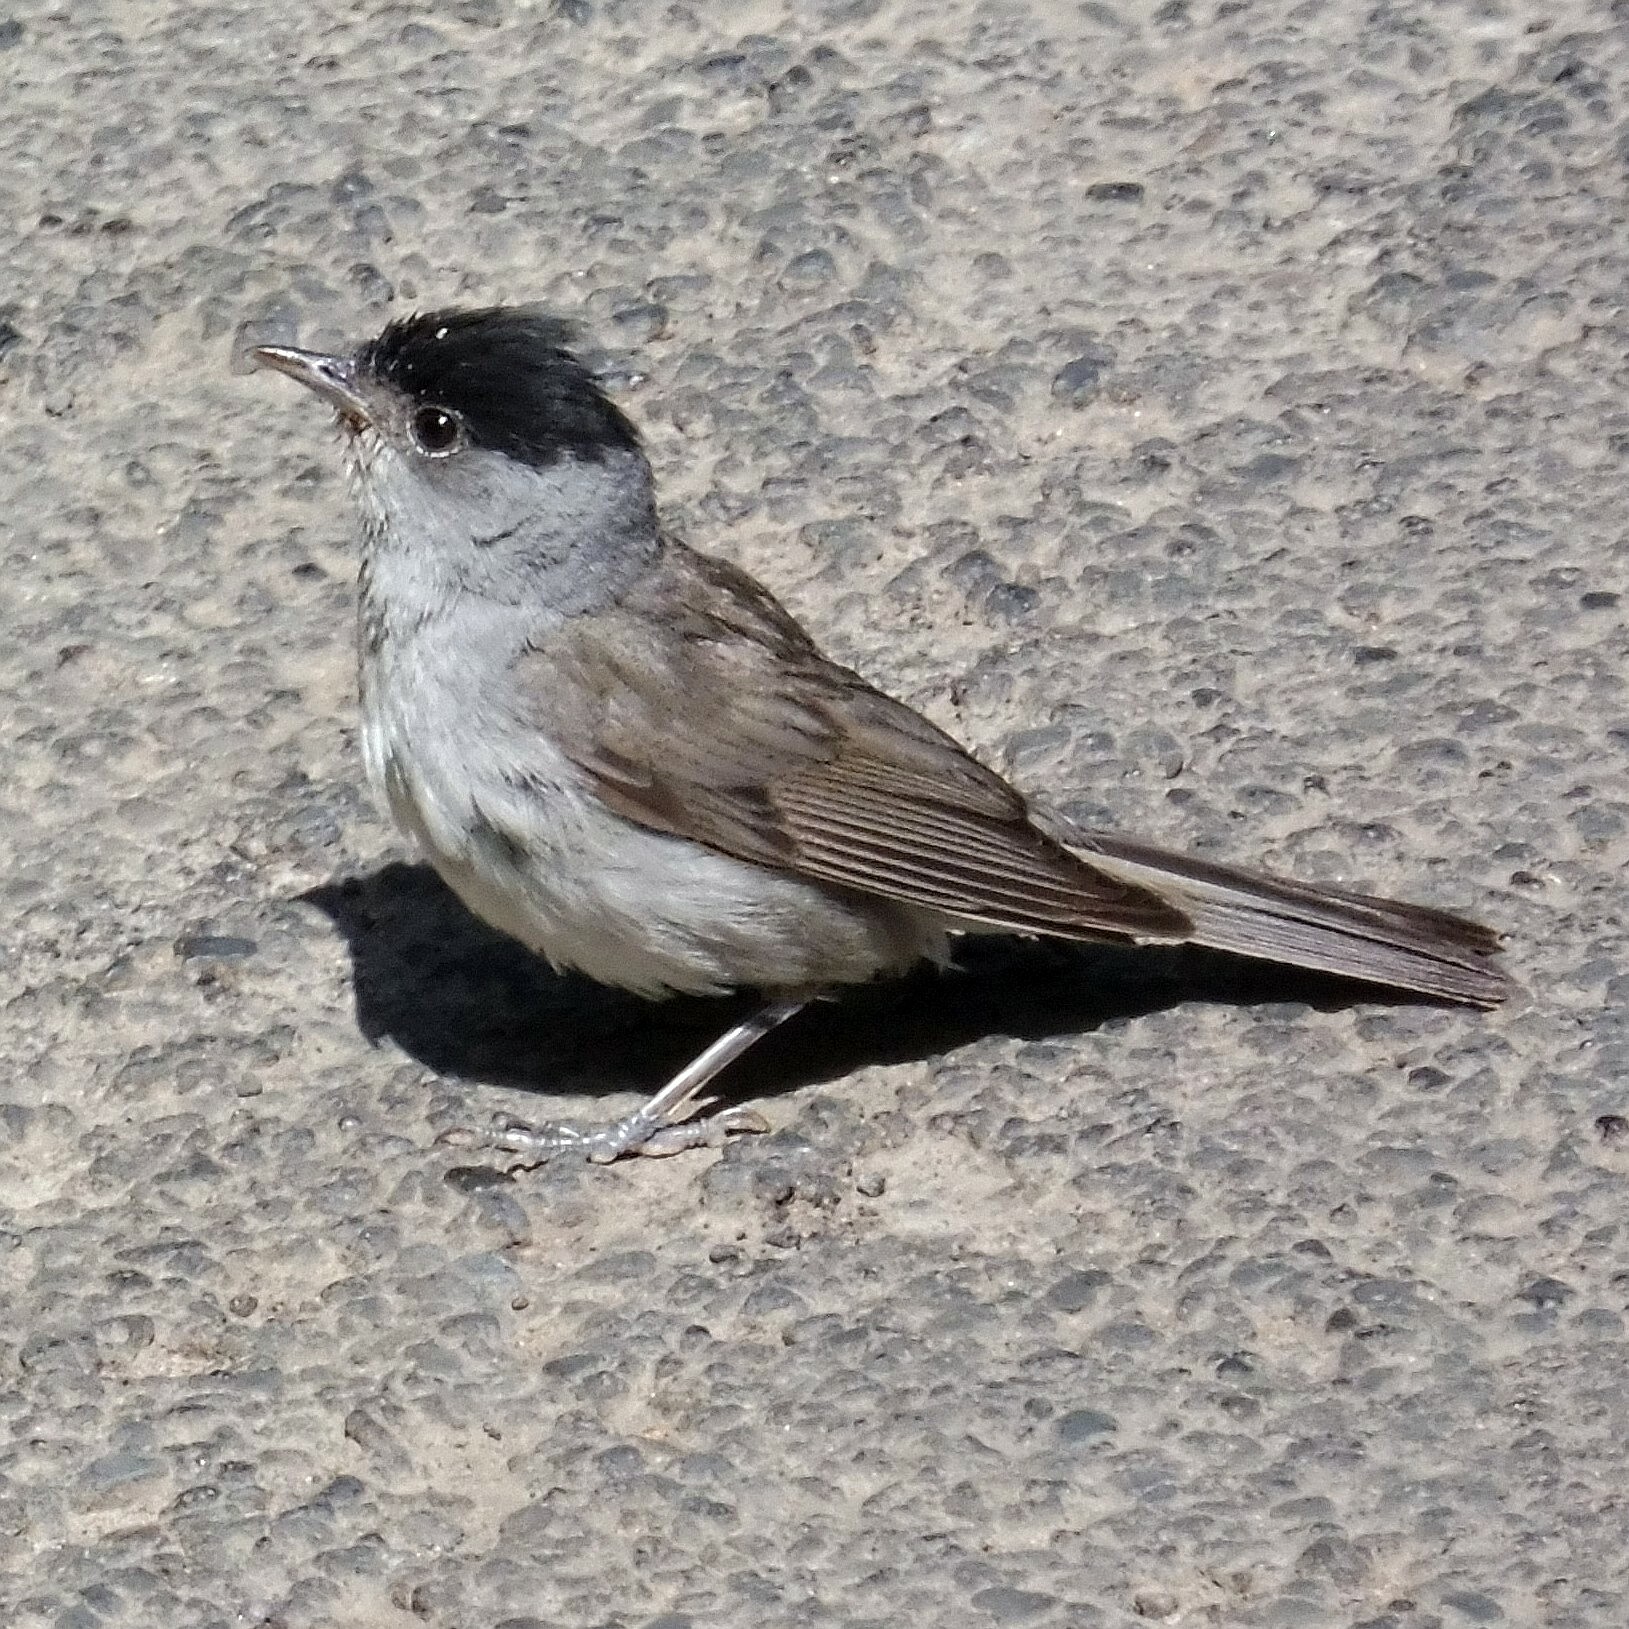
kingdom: Animalia
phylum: Chordata
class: Aves
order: Passeriformes
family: Sylviidae
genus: Sylvia
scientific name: Sylvia atricapilla
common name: Eurasian blackcap
